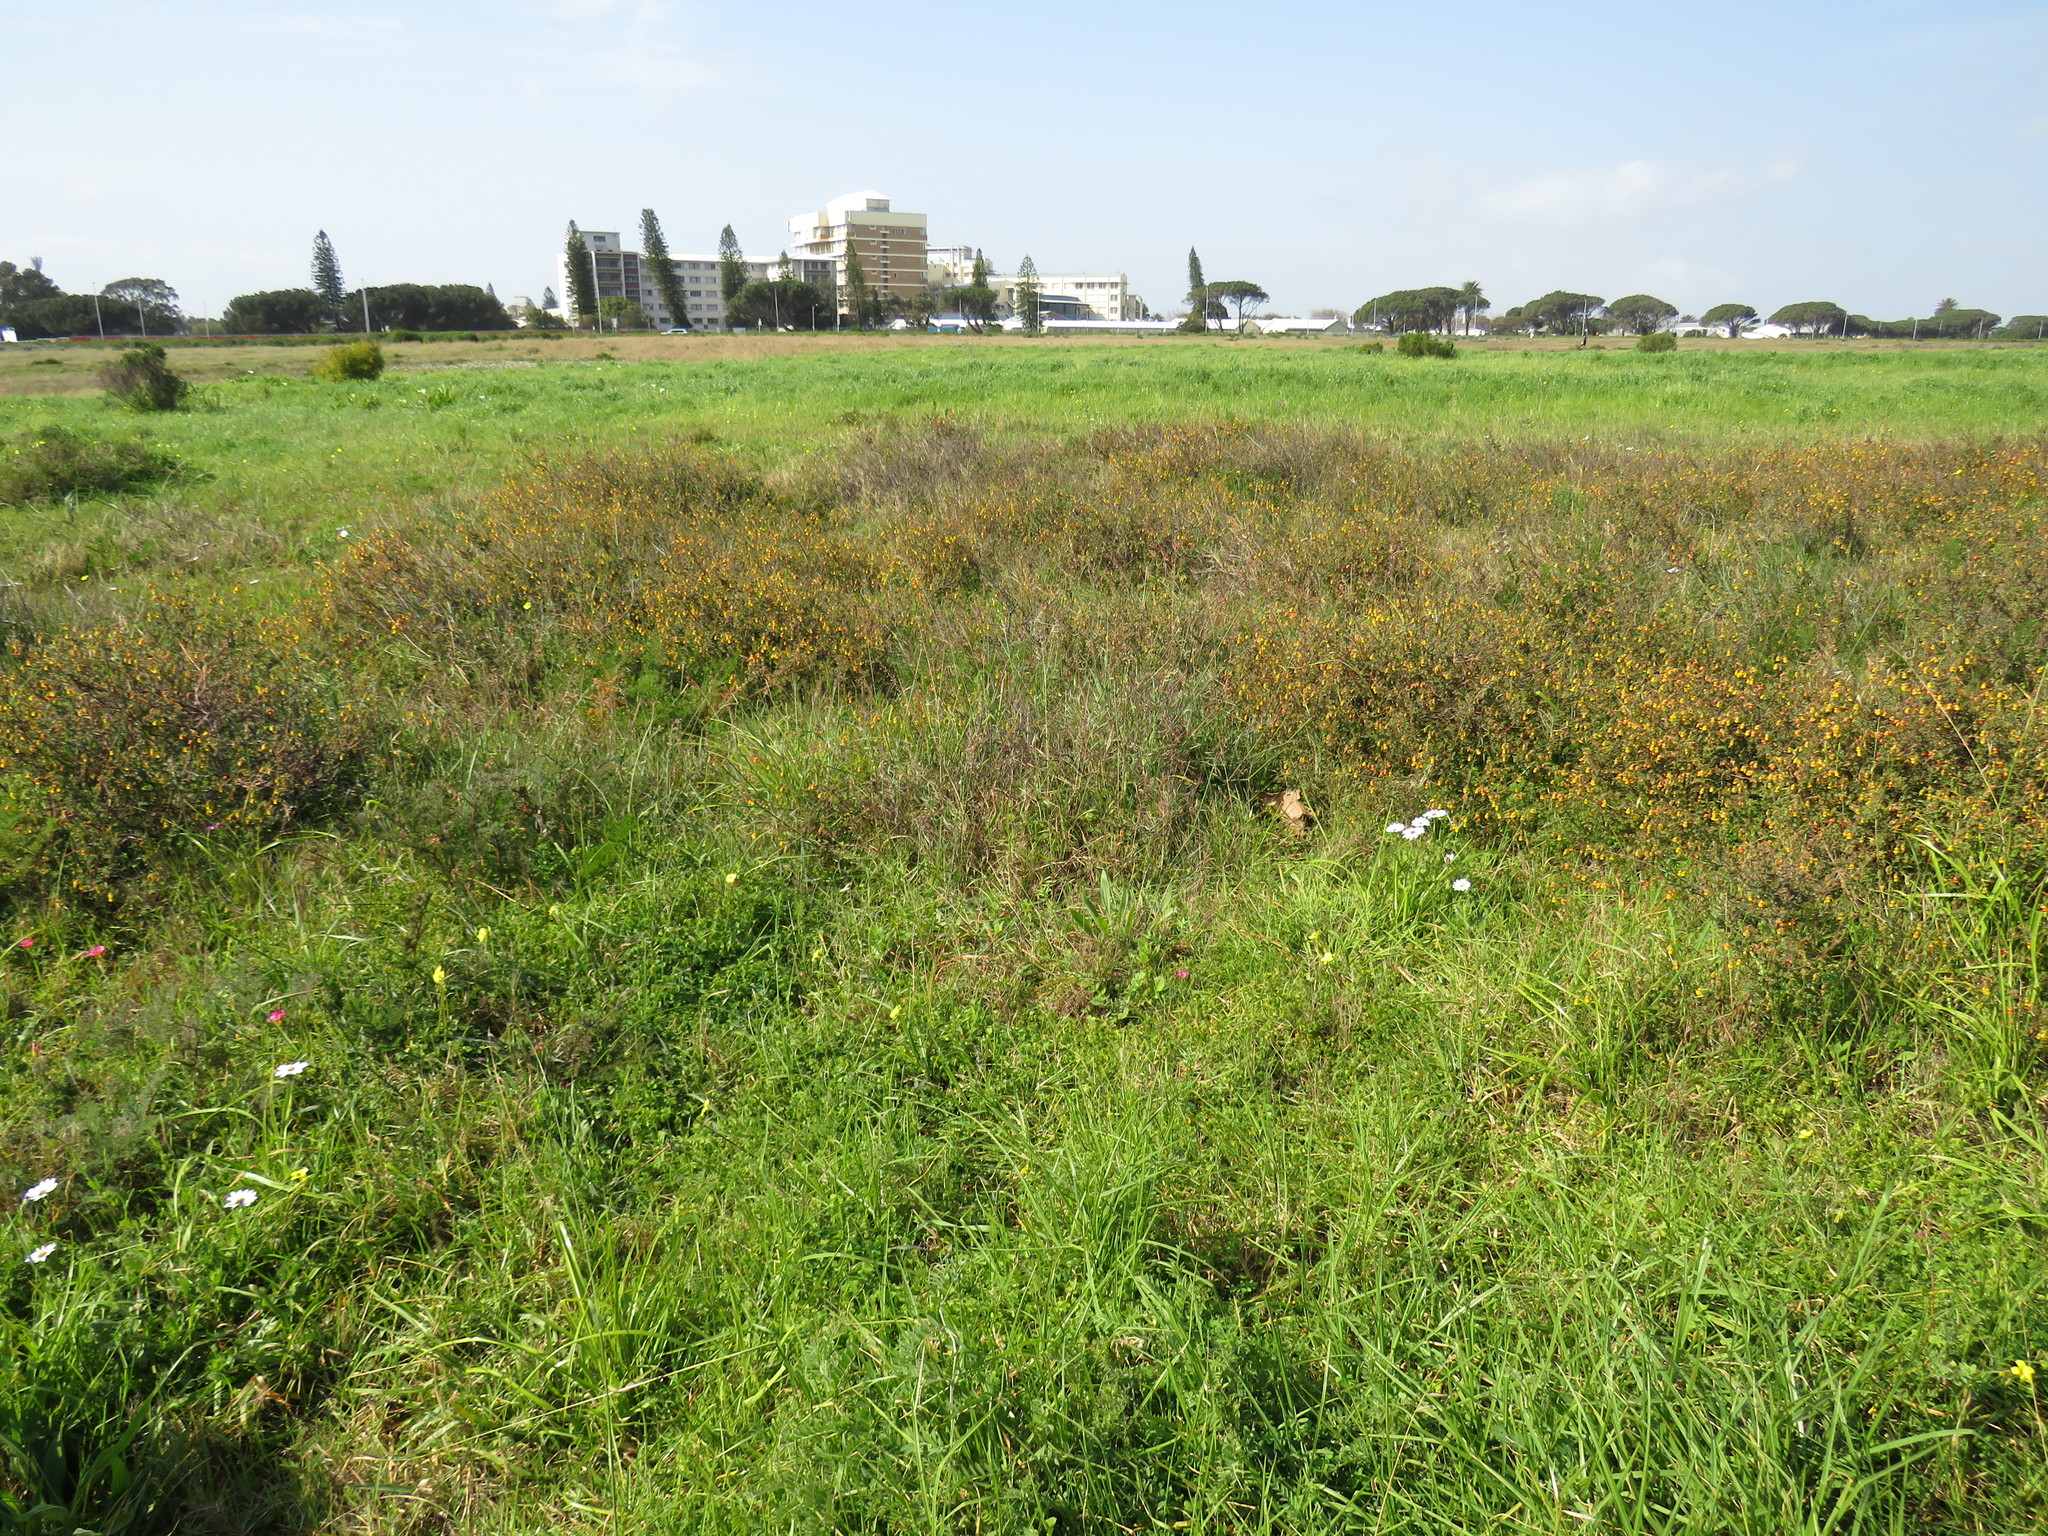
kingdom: Plantae
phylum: Tracheophyta
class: Magnoliopsida
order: Malvales
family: Malvaceae
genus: Hermannia
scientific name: Hermannia multiflora
